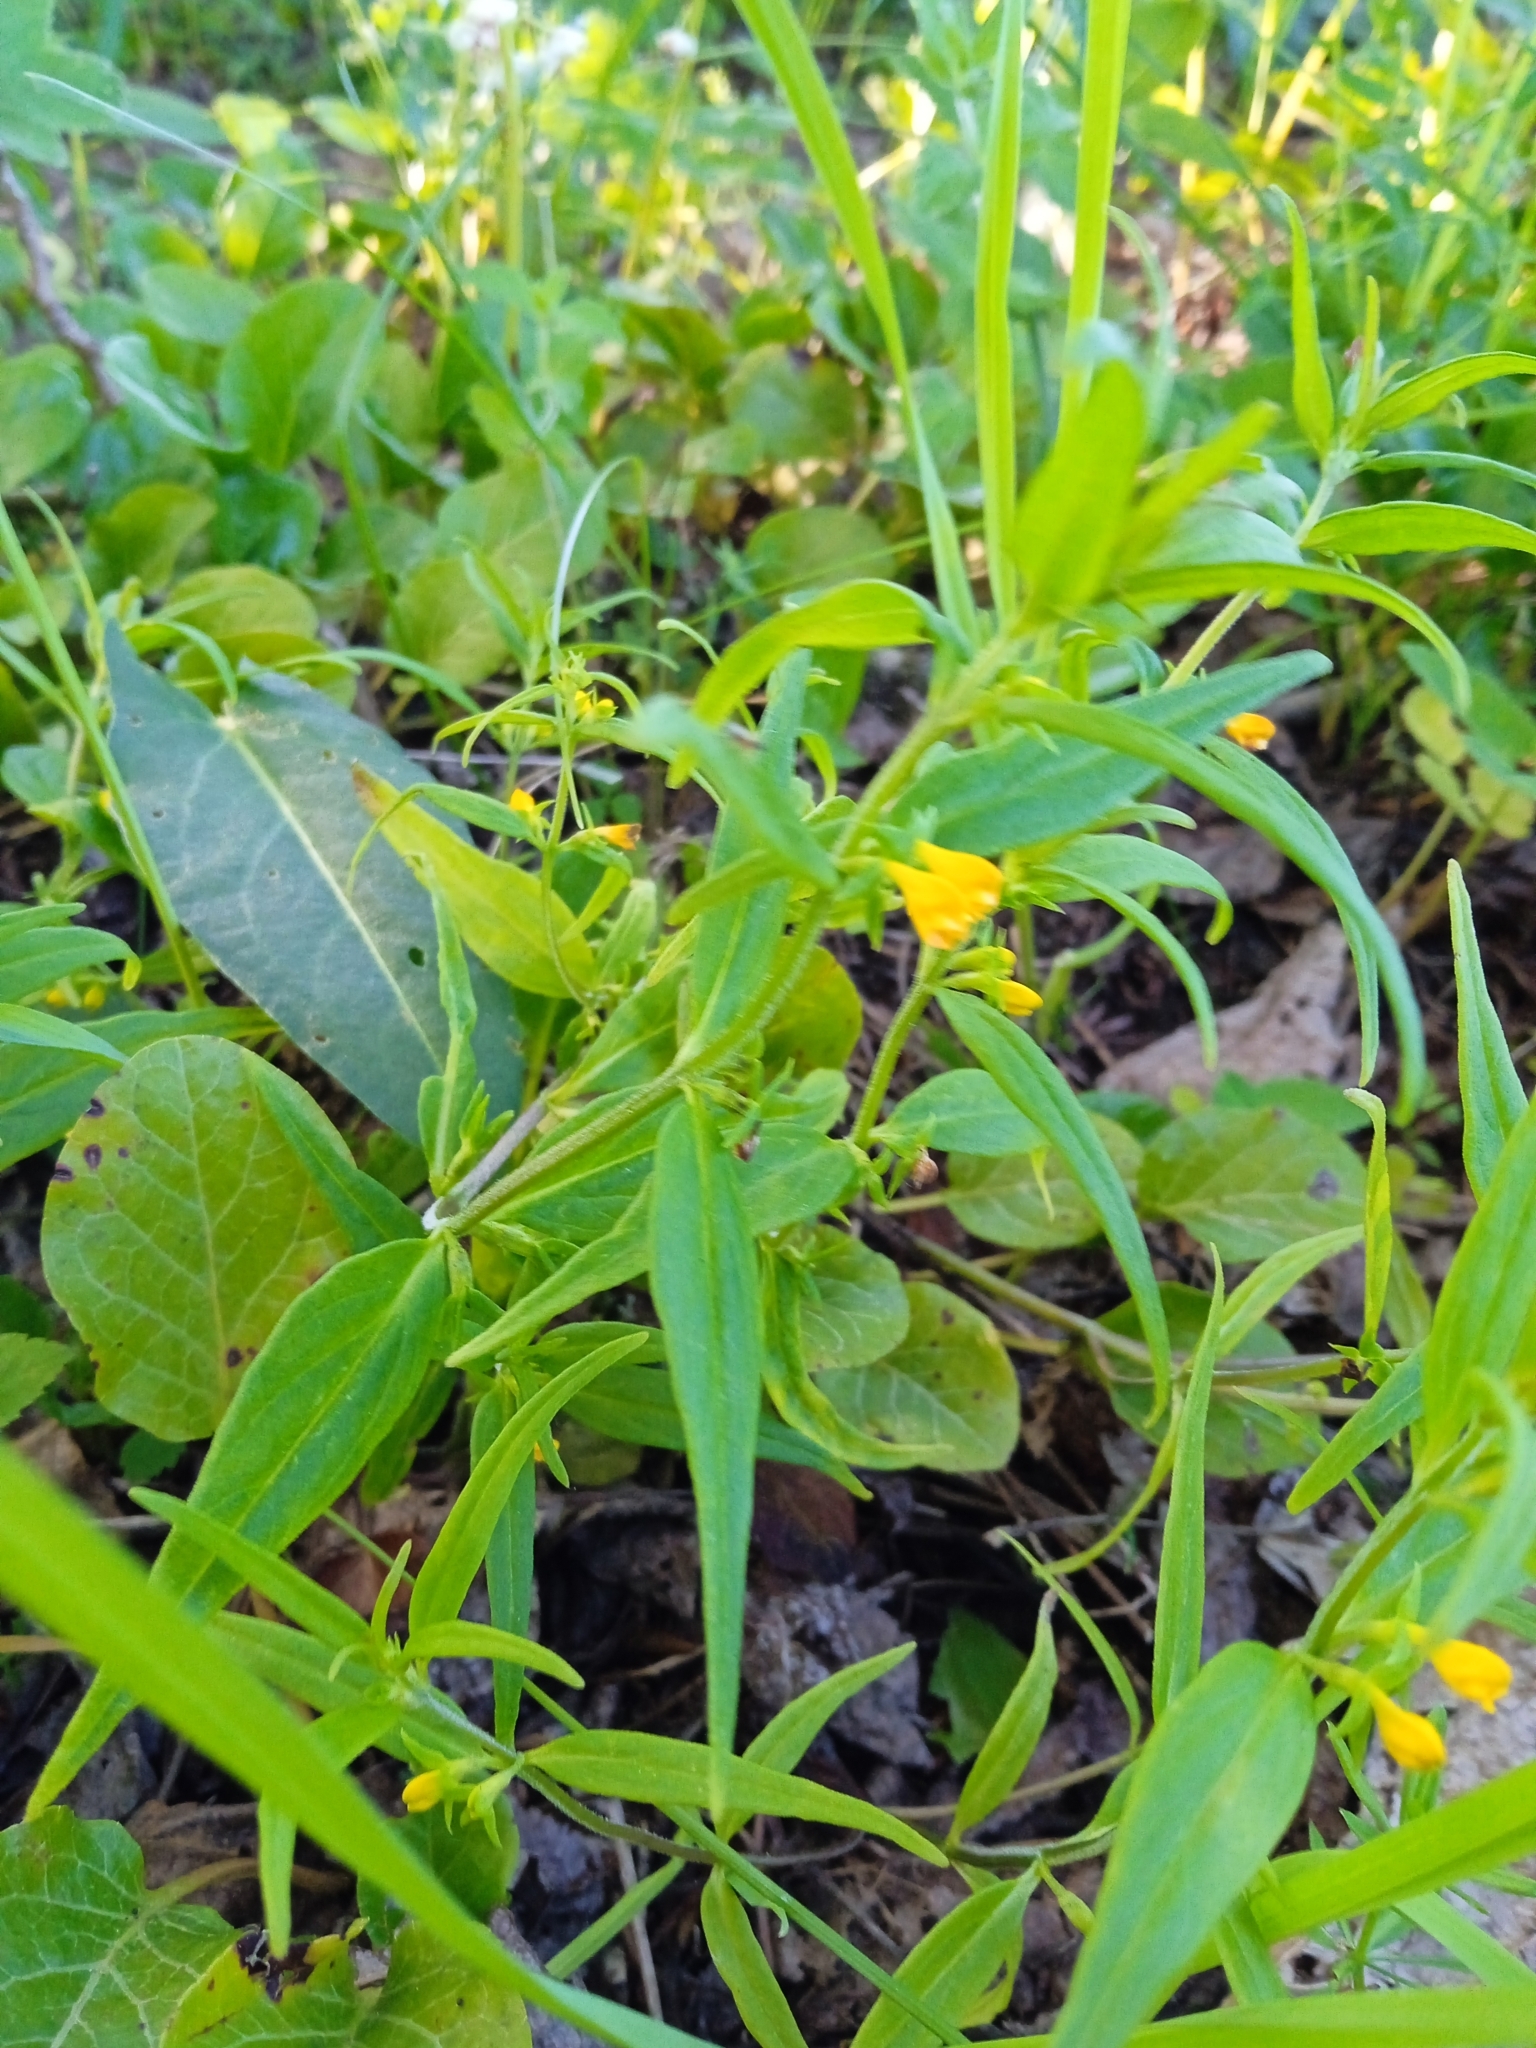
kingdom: Plantae
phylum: Tracheophyta
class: Magnoliopsida
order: Lamiales
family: Orobanchaceae
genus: Melampyrum
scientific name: Melampyrum sylvaticum
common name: Small cow-wheat
